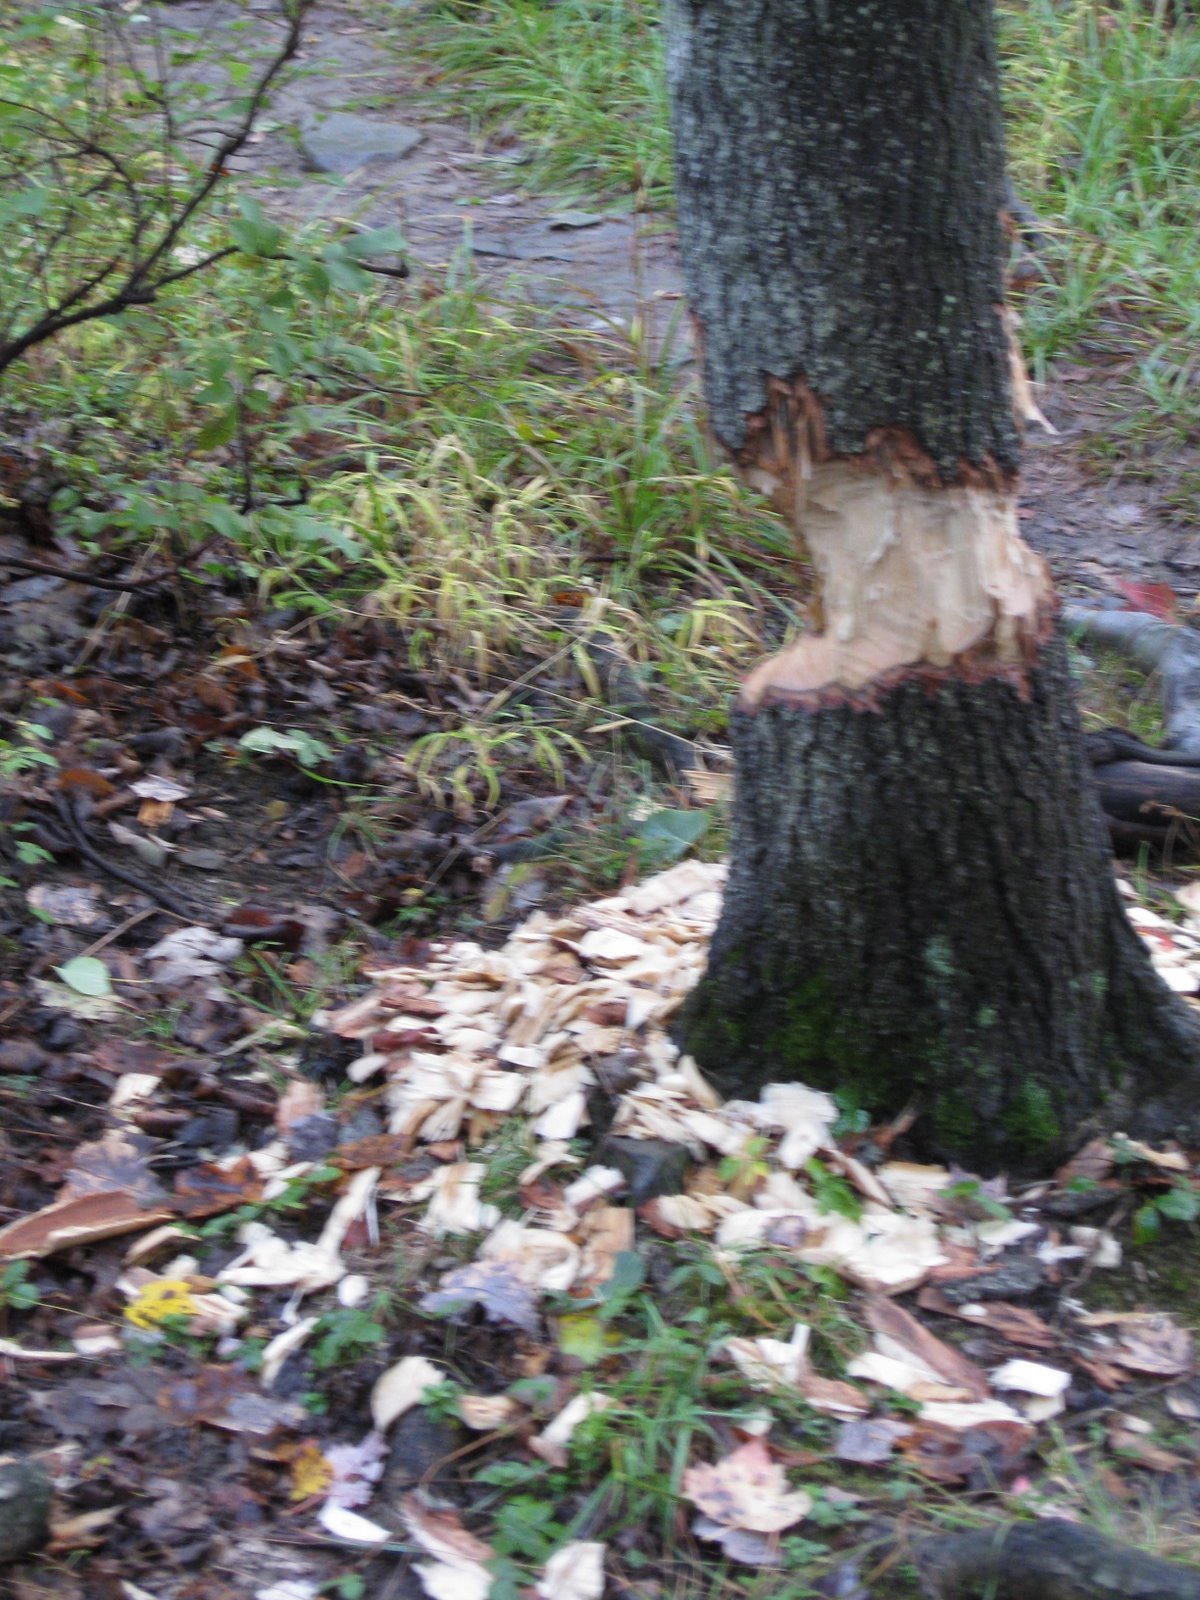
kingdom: Animalia
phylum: Chordata
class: Mammalia
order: Rodentia
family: Castoridae
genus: Castor
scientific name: Castor canadensis
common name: American beaver
